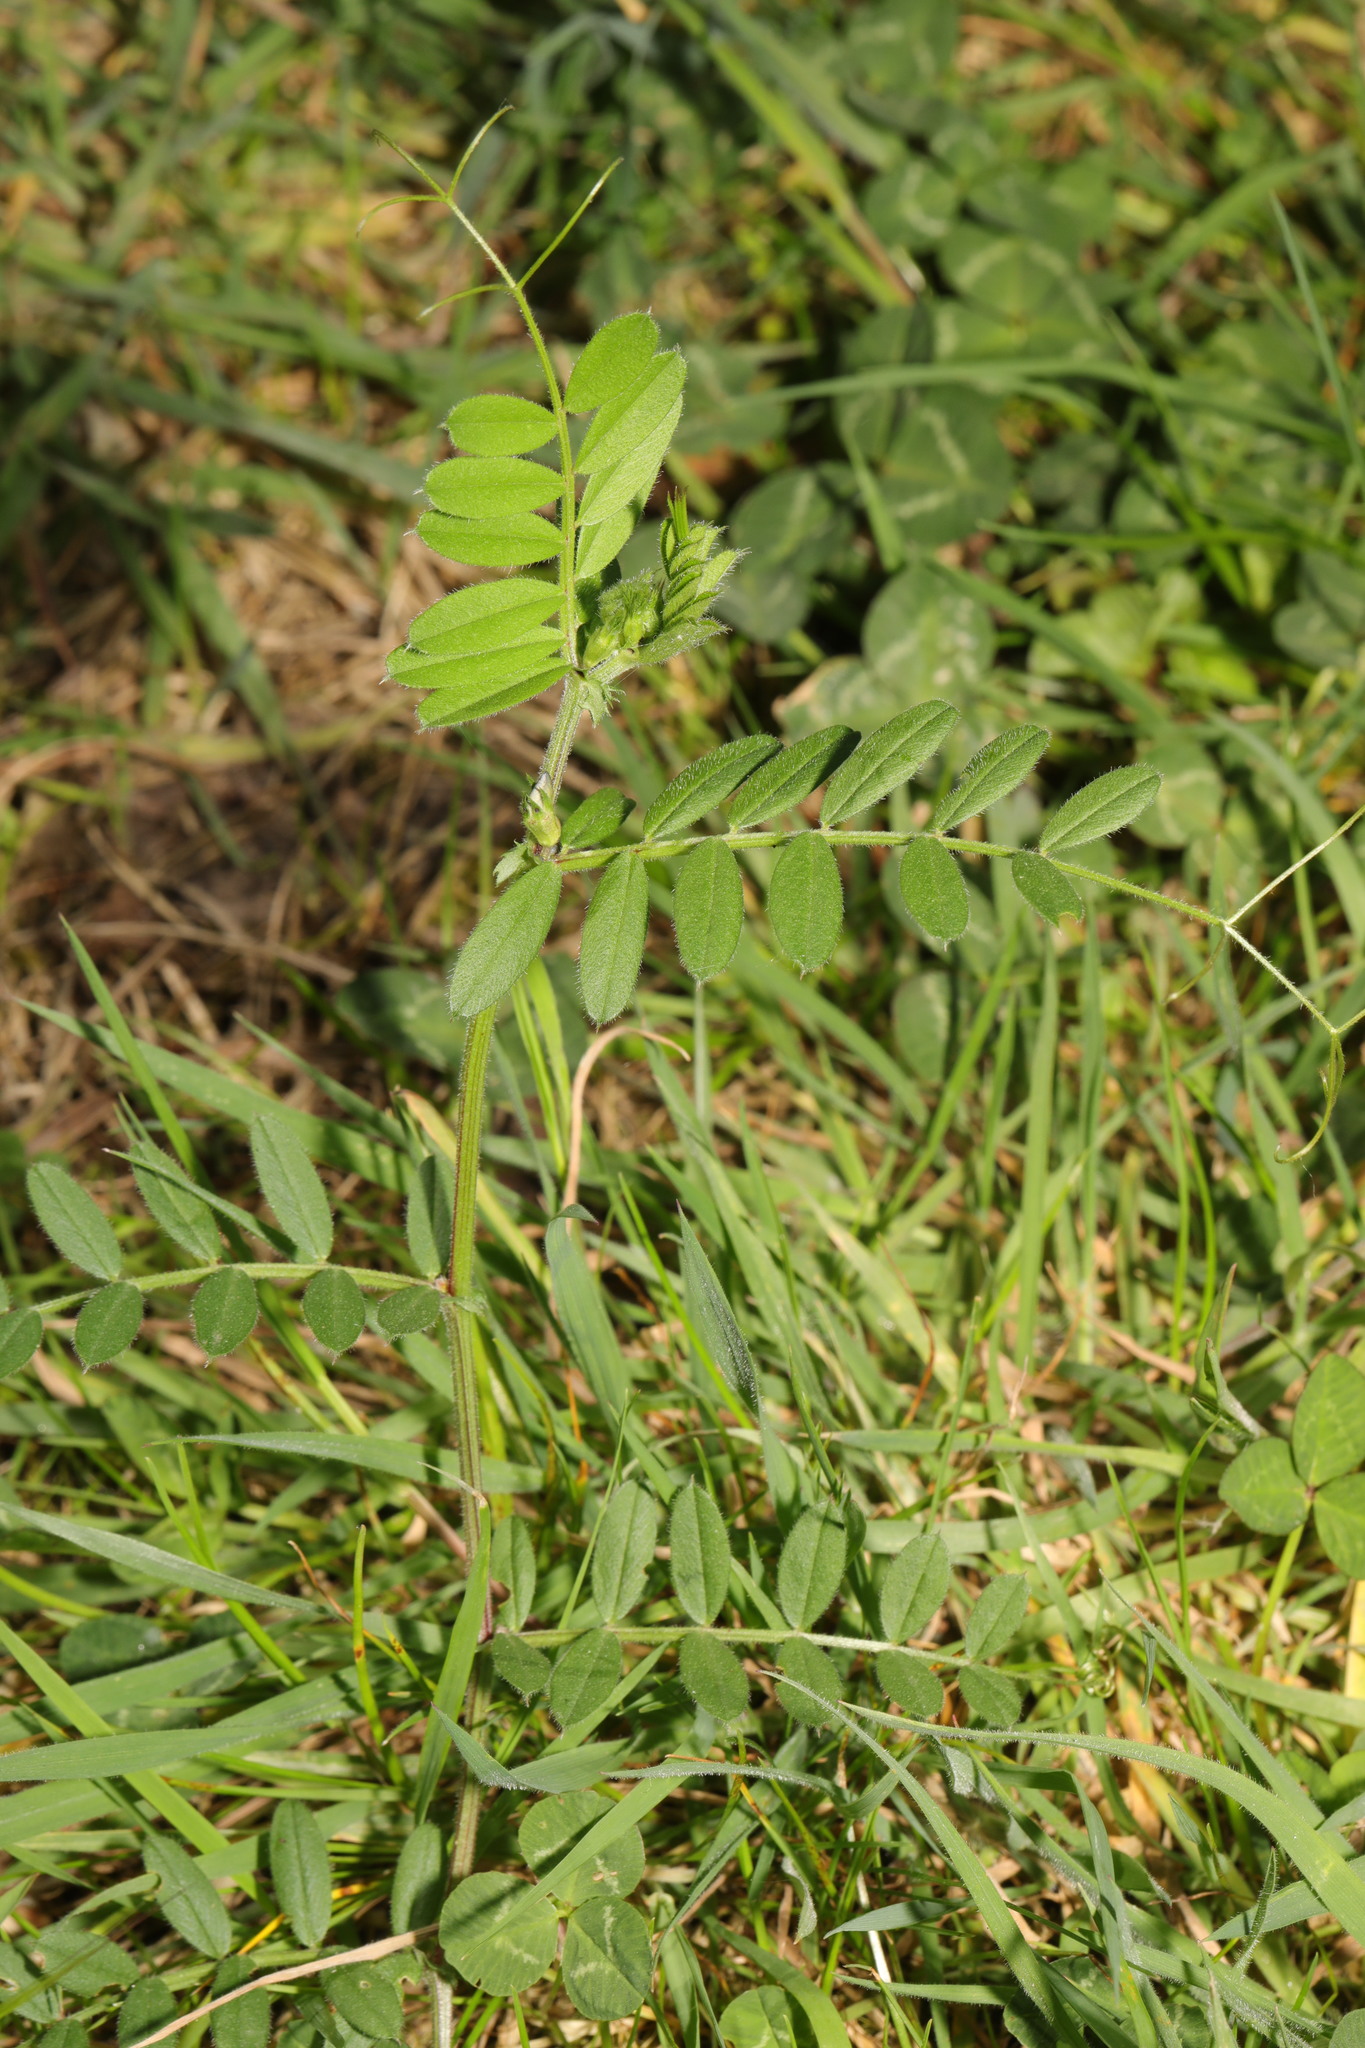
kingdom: Plantae
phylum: Tracheophyta
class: Magnoliopsida
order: Fabales
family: Fabaceae
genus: Vicia
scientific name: Vicia sativa
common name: Garden vetch
